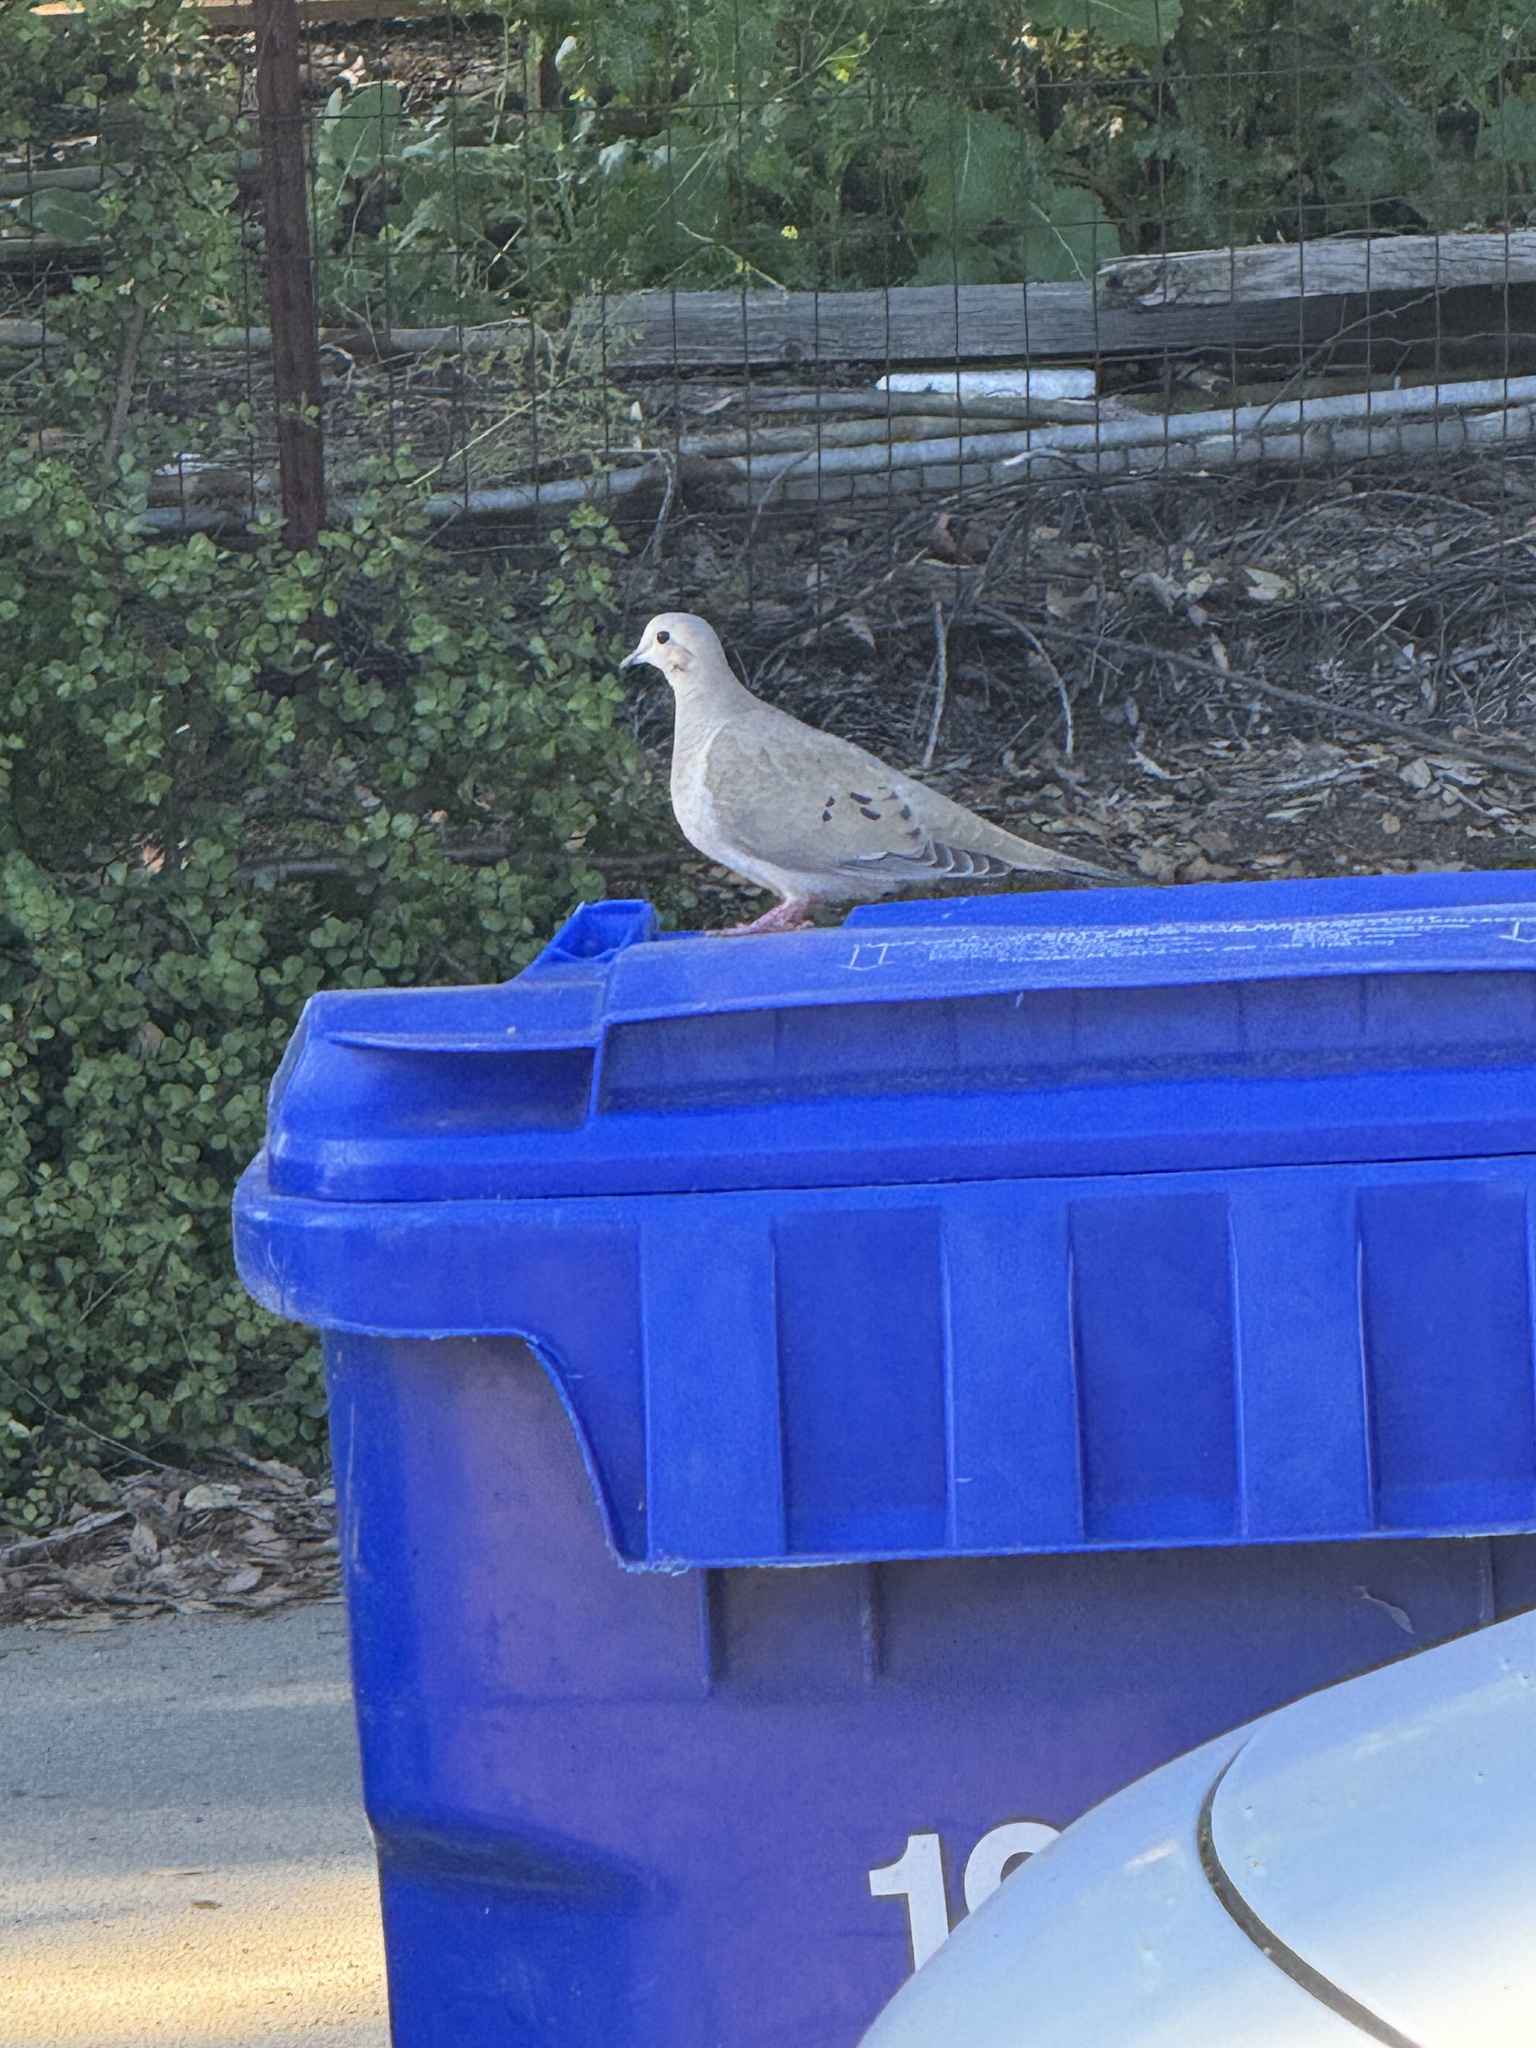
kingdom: Animalia
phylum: Chordata
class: Aves
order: Columbiformes
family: Columbidae
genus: Zenaida
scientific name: Zenaida macroura
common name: Mourning dove
